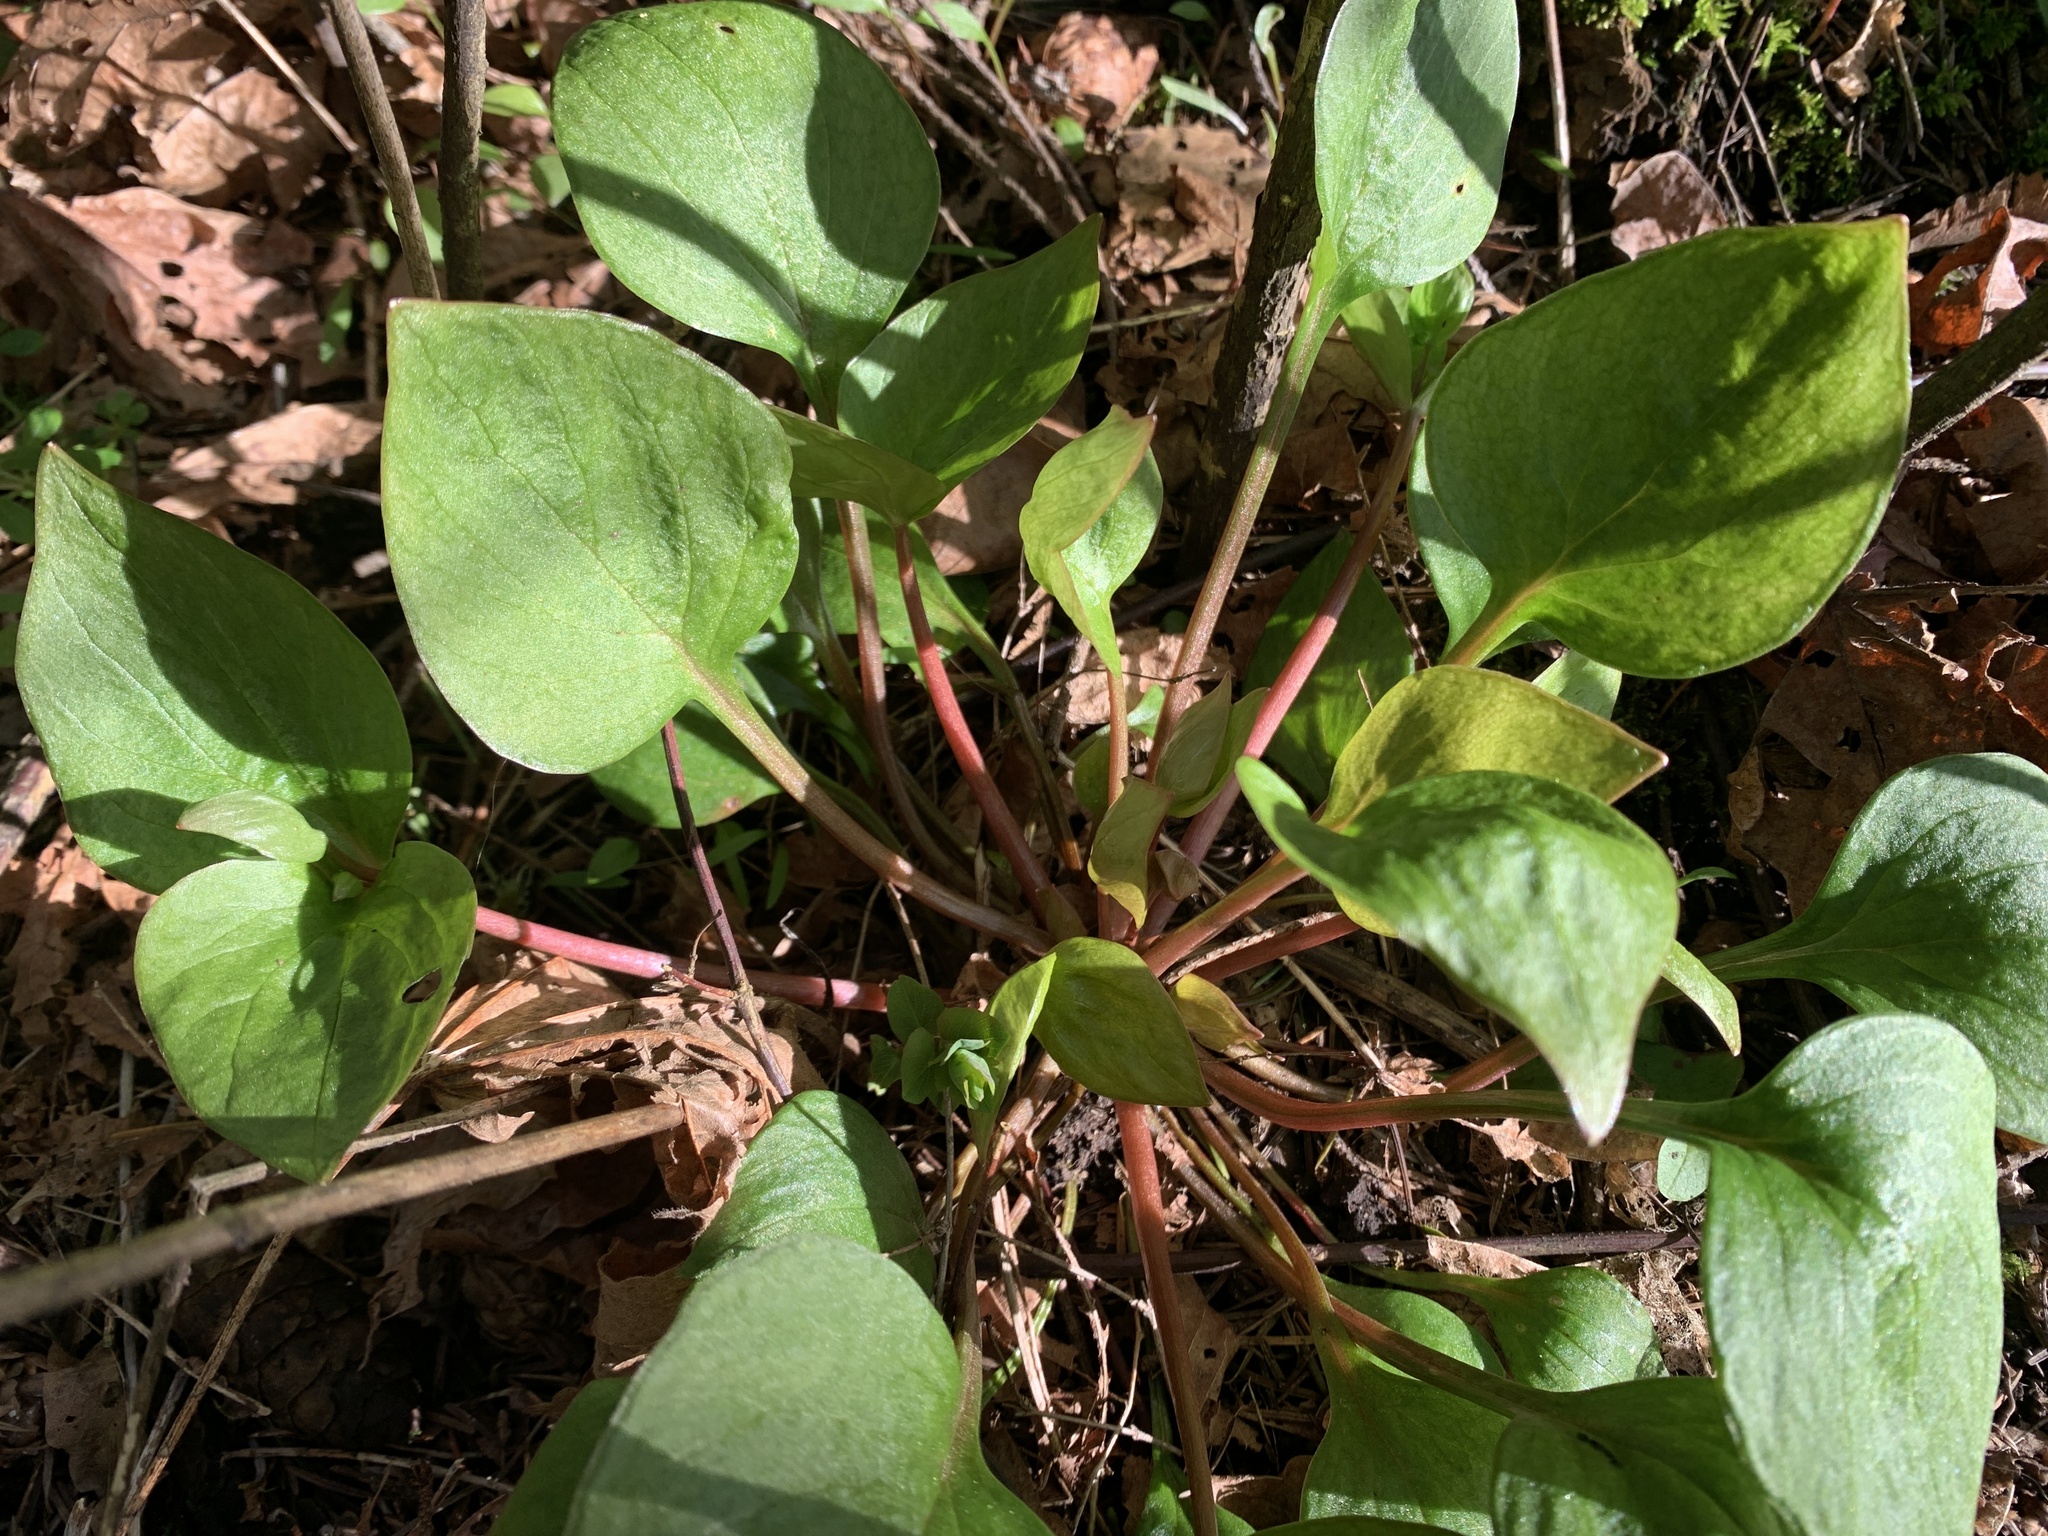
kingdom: Plantae
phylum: Tracheophyta
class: Magnoliopsida
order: Caryophyllales
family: Montiaceae
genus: Claytonia
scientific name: Claytonia sibirica
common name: Pink purslane
